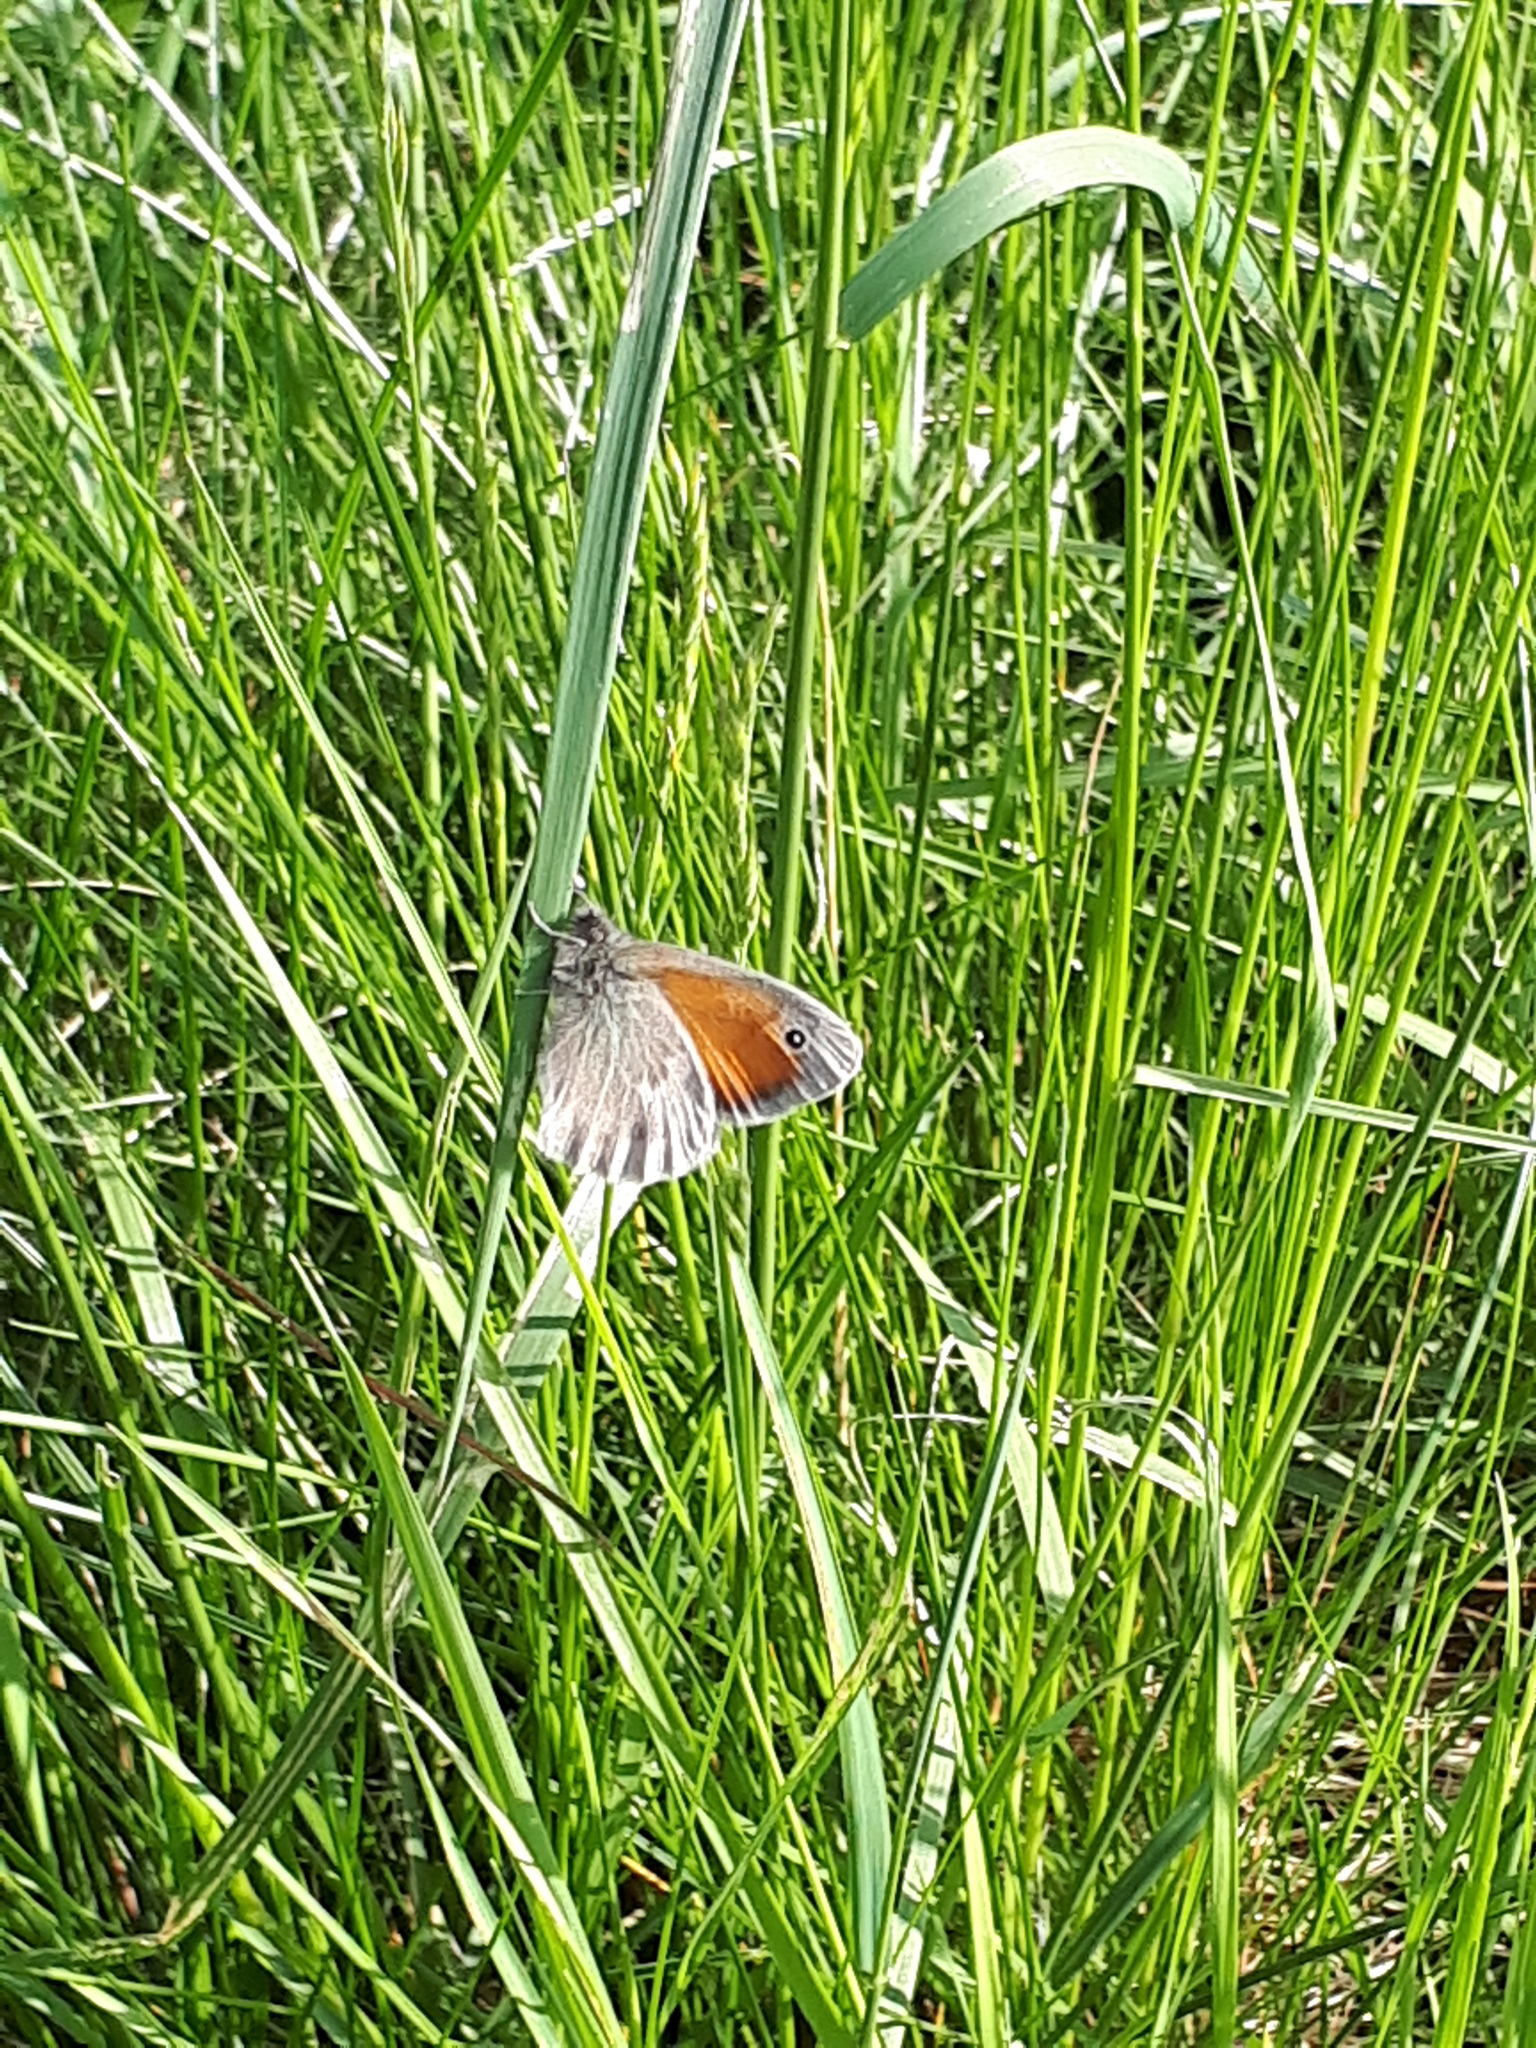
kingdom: Animalia
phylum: Arthropoda
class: Insecta
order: Lepidoptera
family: Nymphalidae
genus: Coenonympha
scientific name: Coenonympha pamphilus
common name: Small heath
